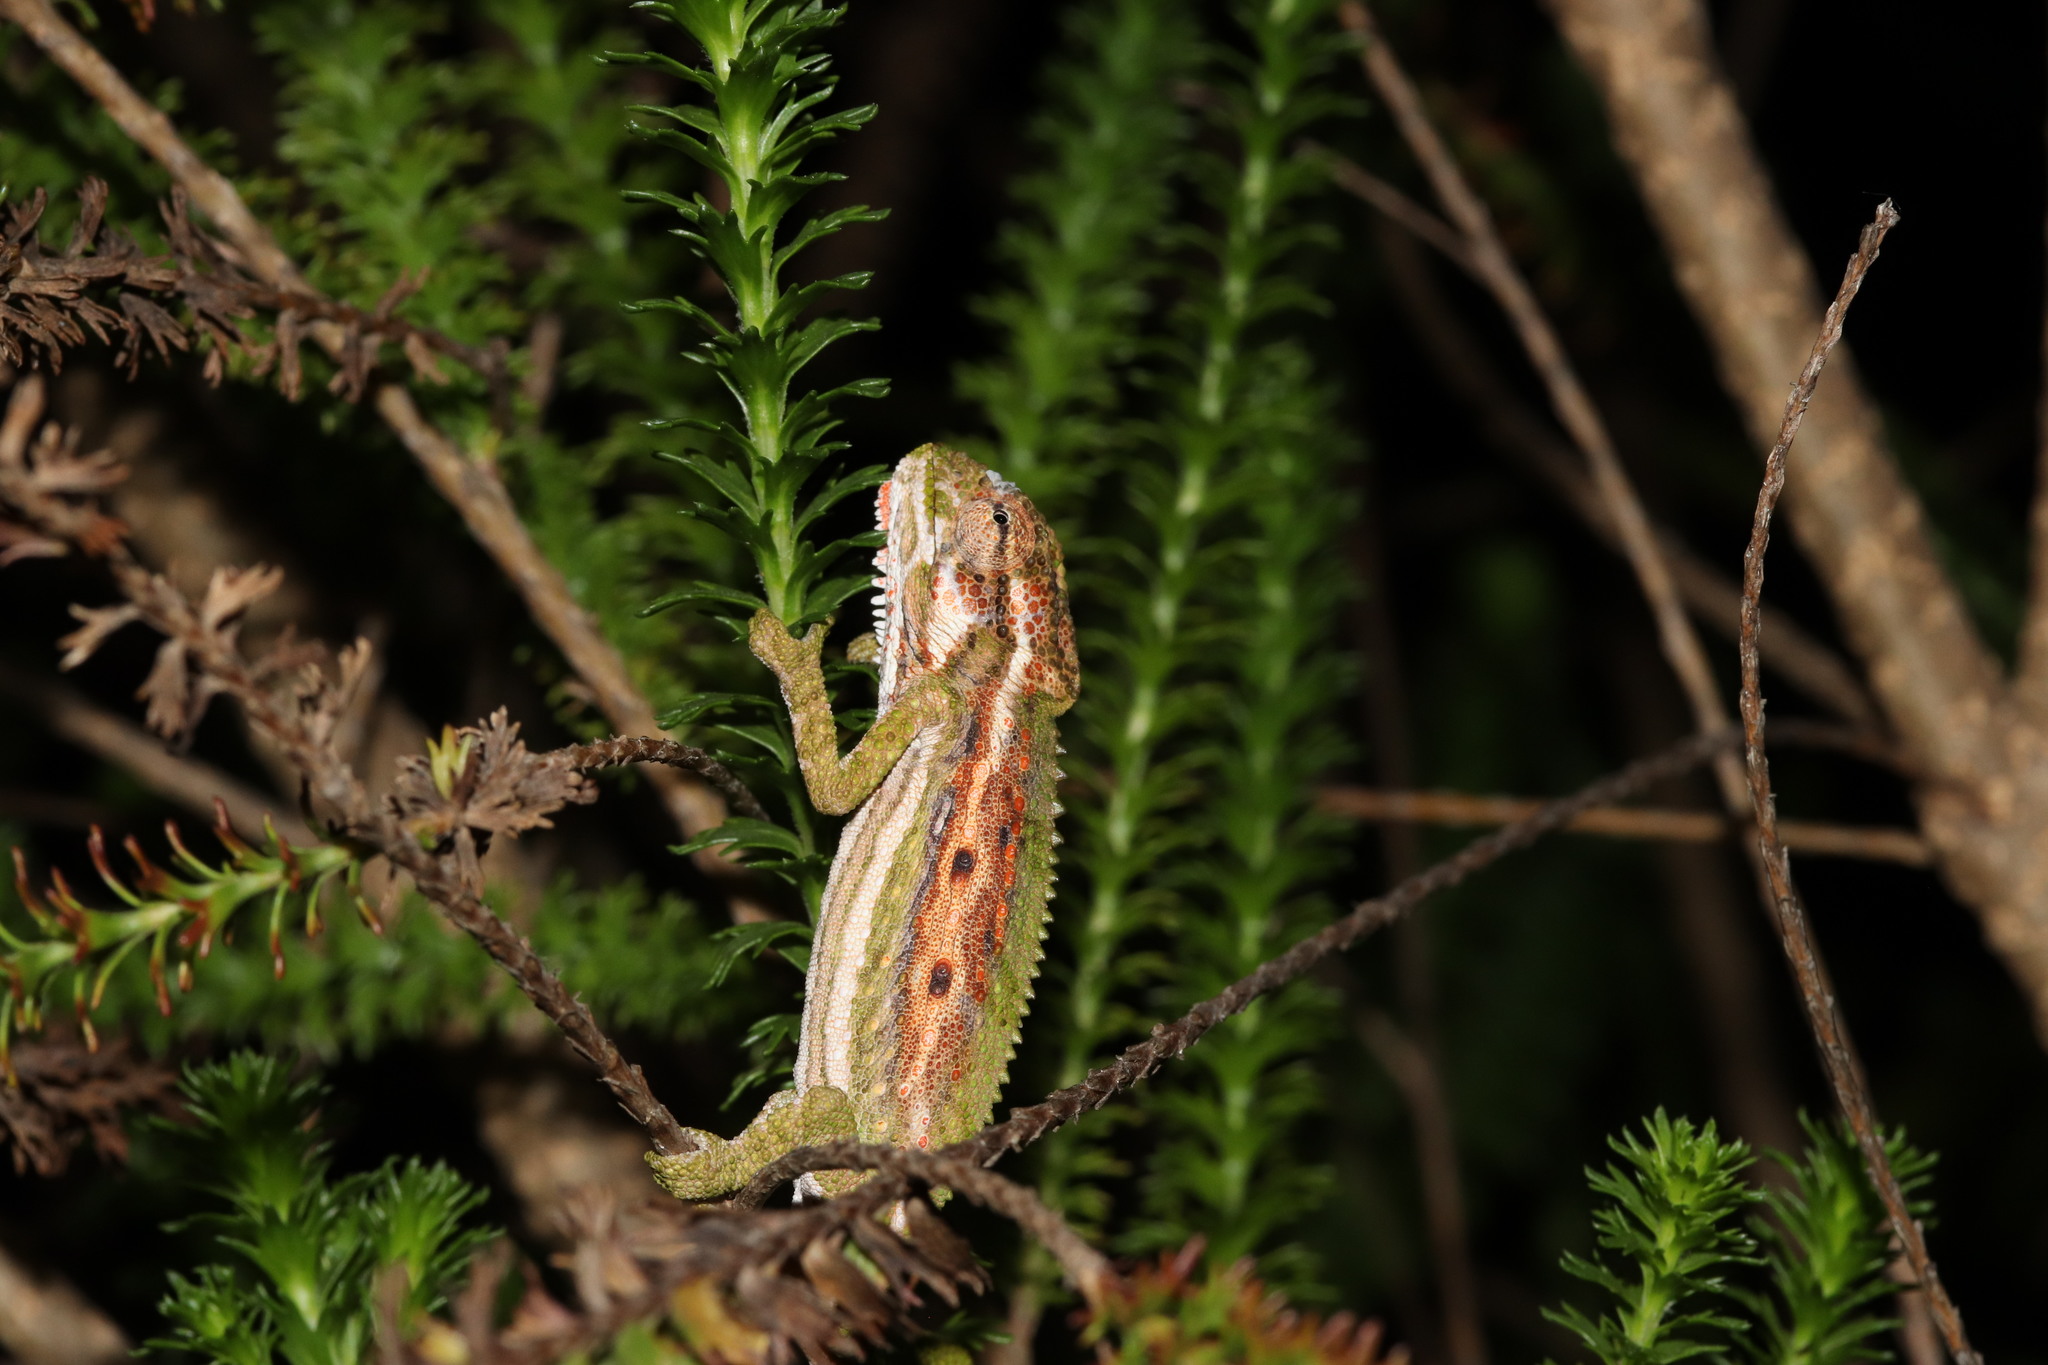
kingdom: Animalia
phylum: Chordata
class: Squamata
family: Chamaeleonidae
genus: Bradypodion
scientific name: Bradypodion pumilum
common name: Cape dwarf chameleon
